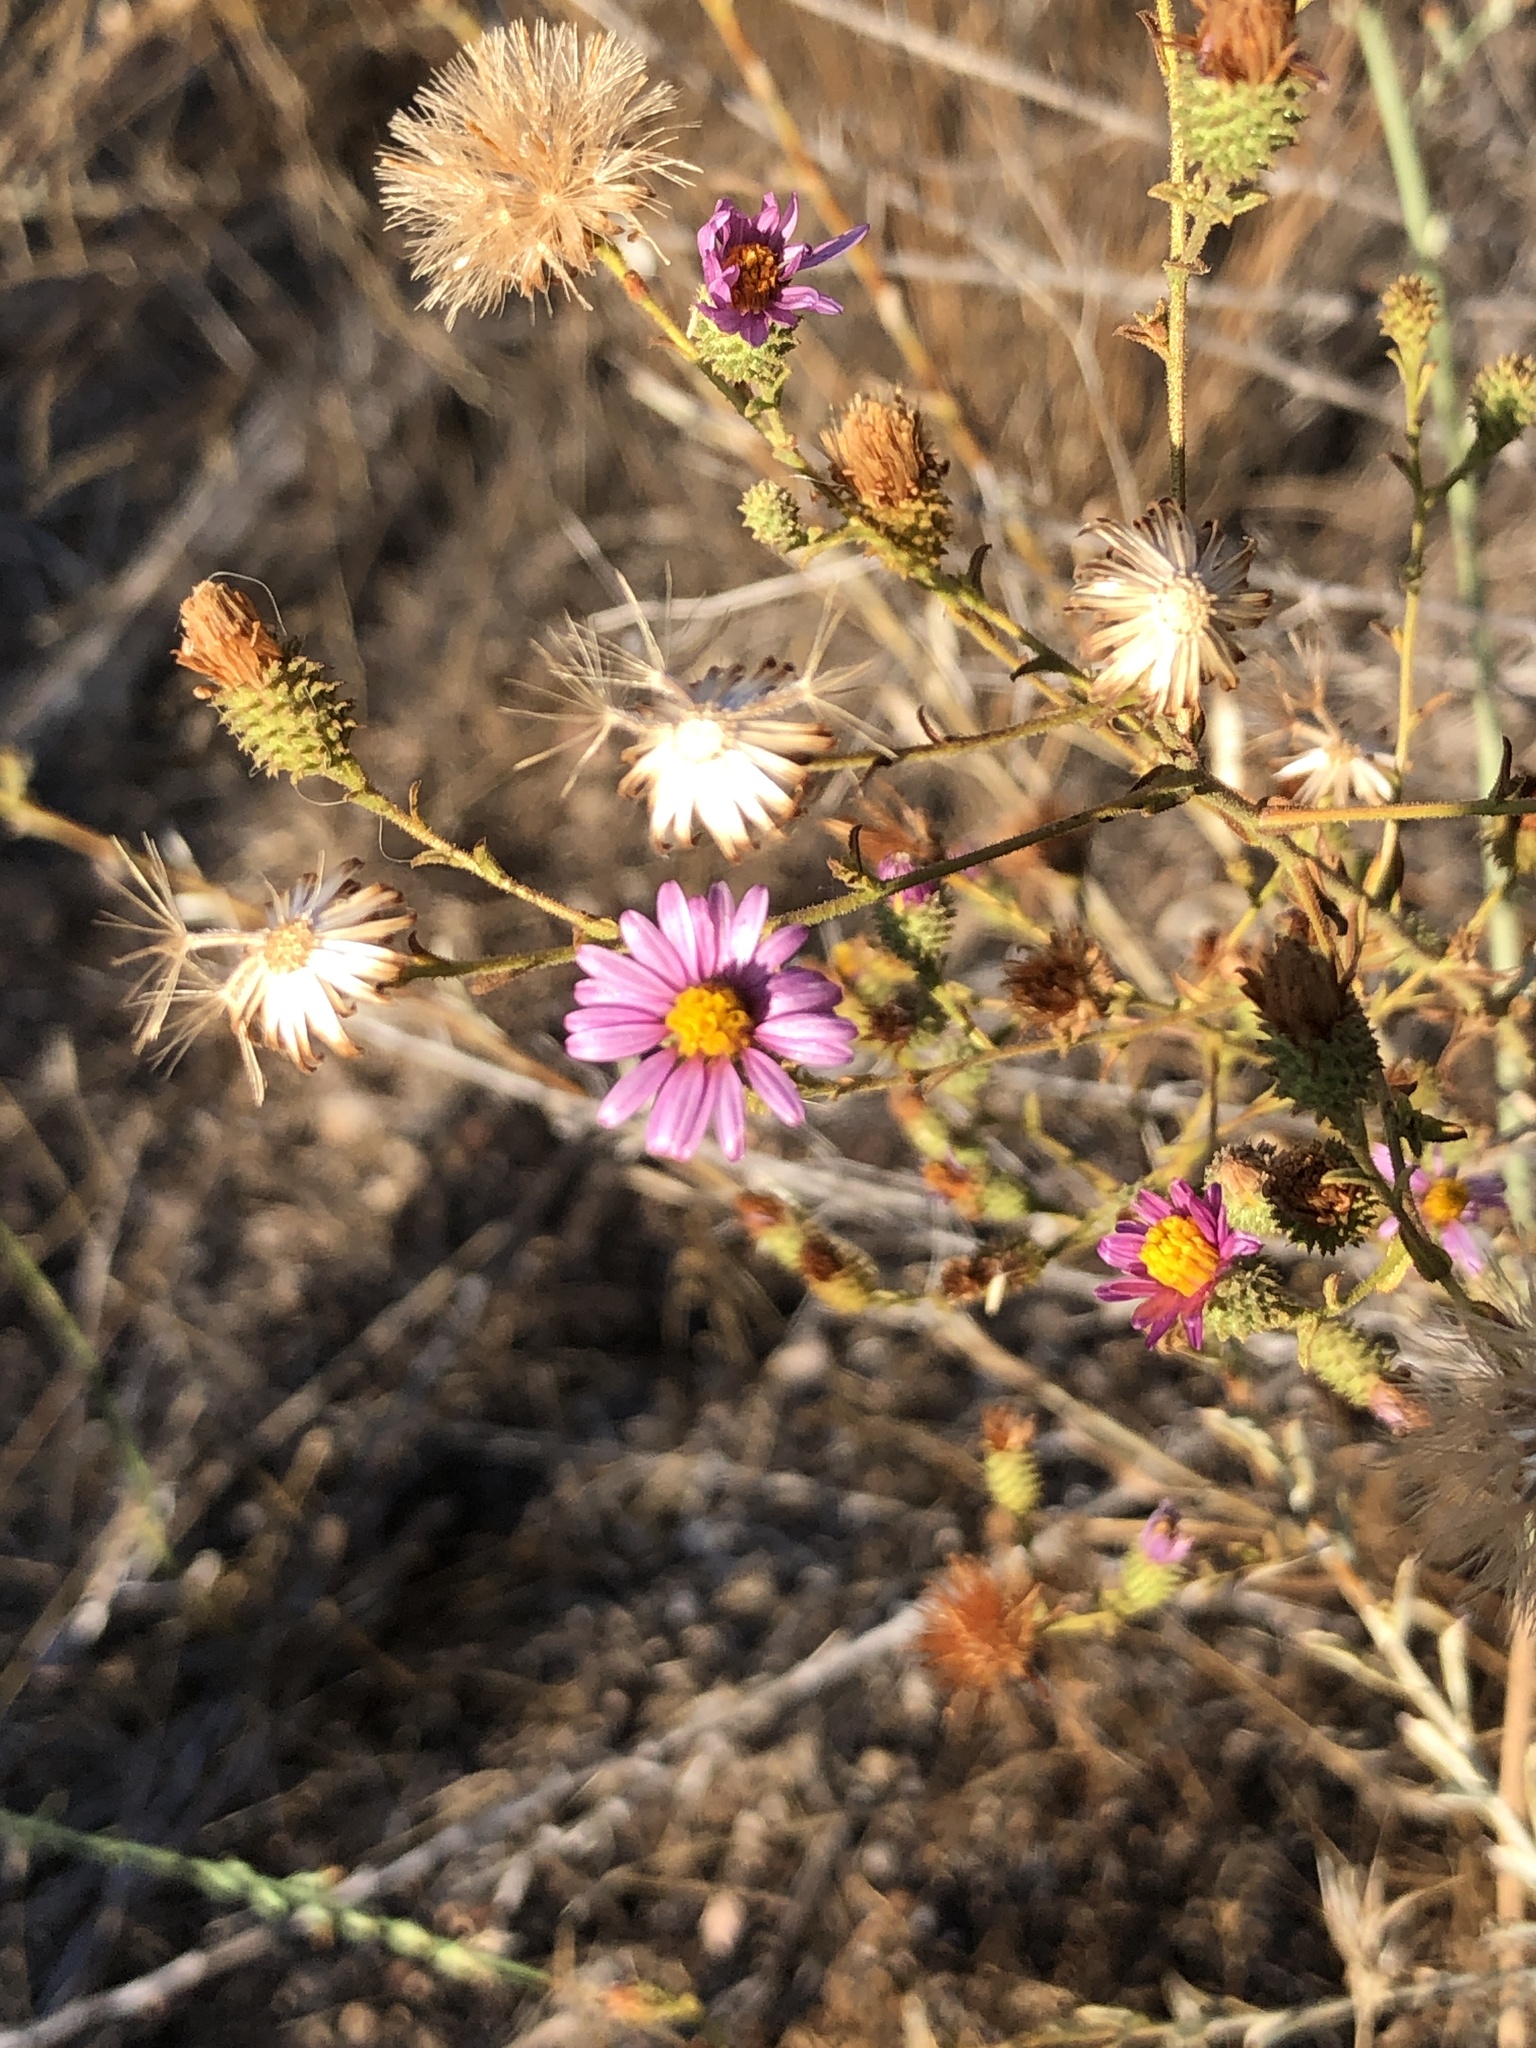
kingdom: Plantae
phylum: Tracheophyta
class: Magnoliopsida
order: Asterales
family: Asteraceae
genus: Corethrogyne
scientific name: Corethrogyne filaginifolia
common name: Sand-aster
